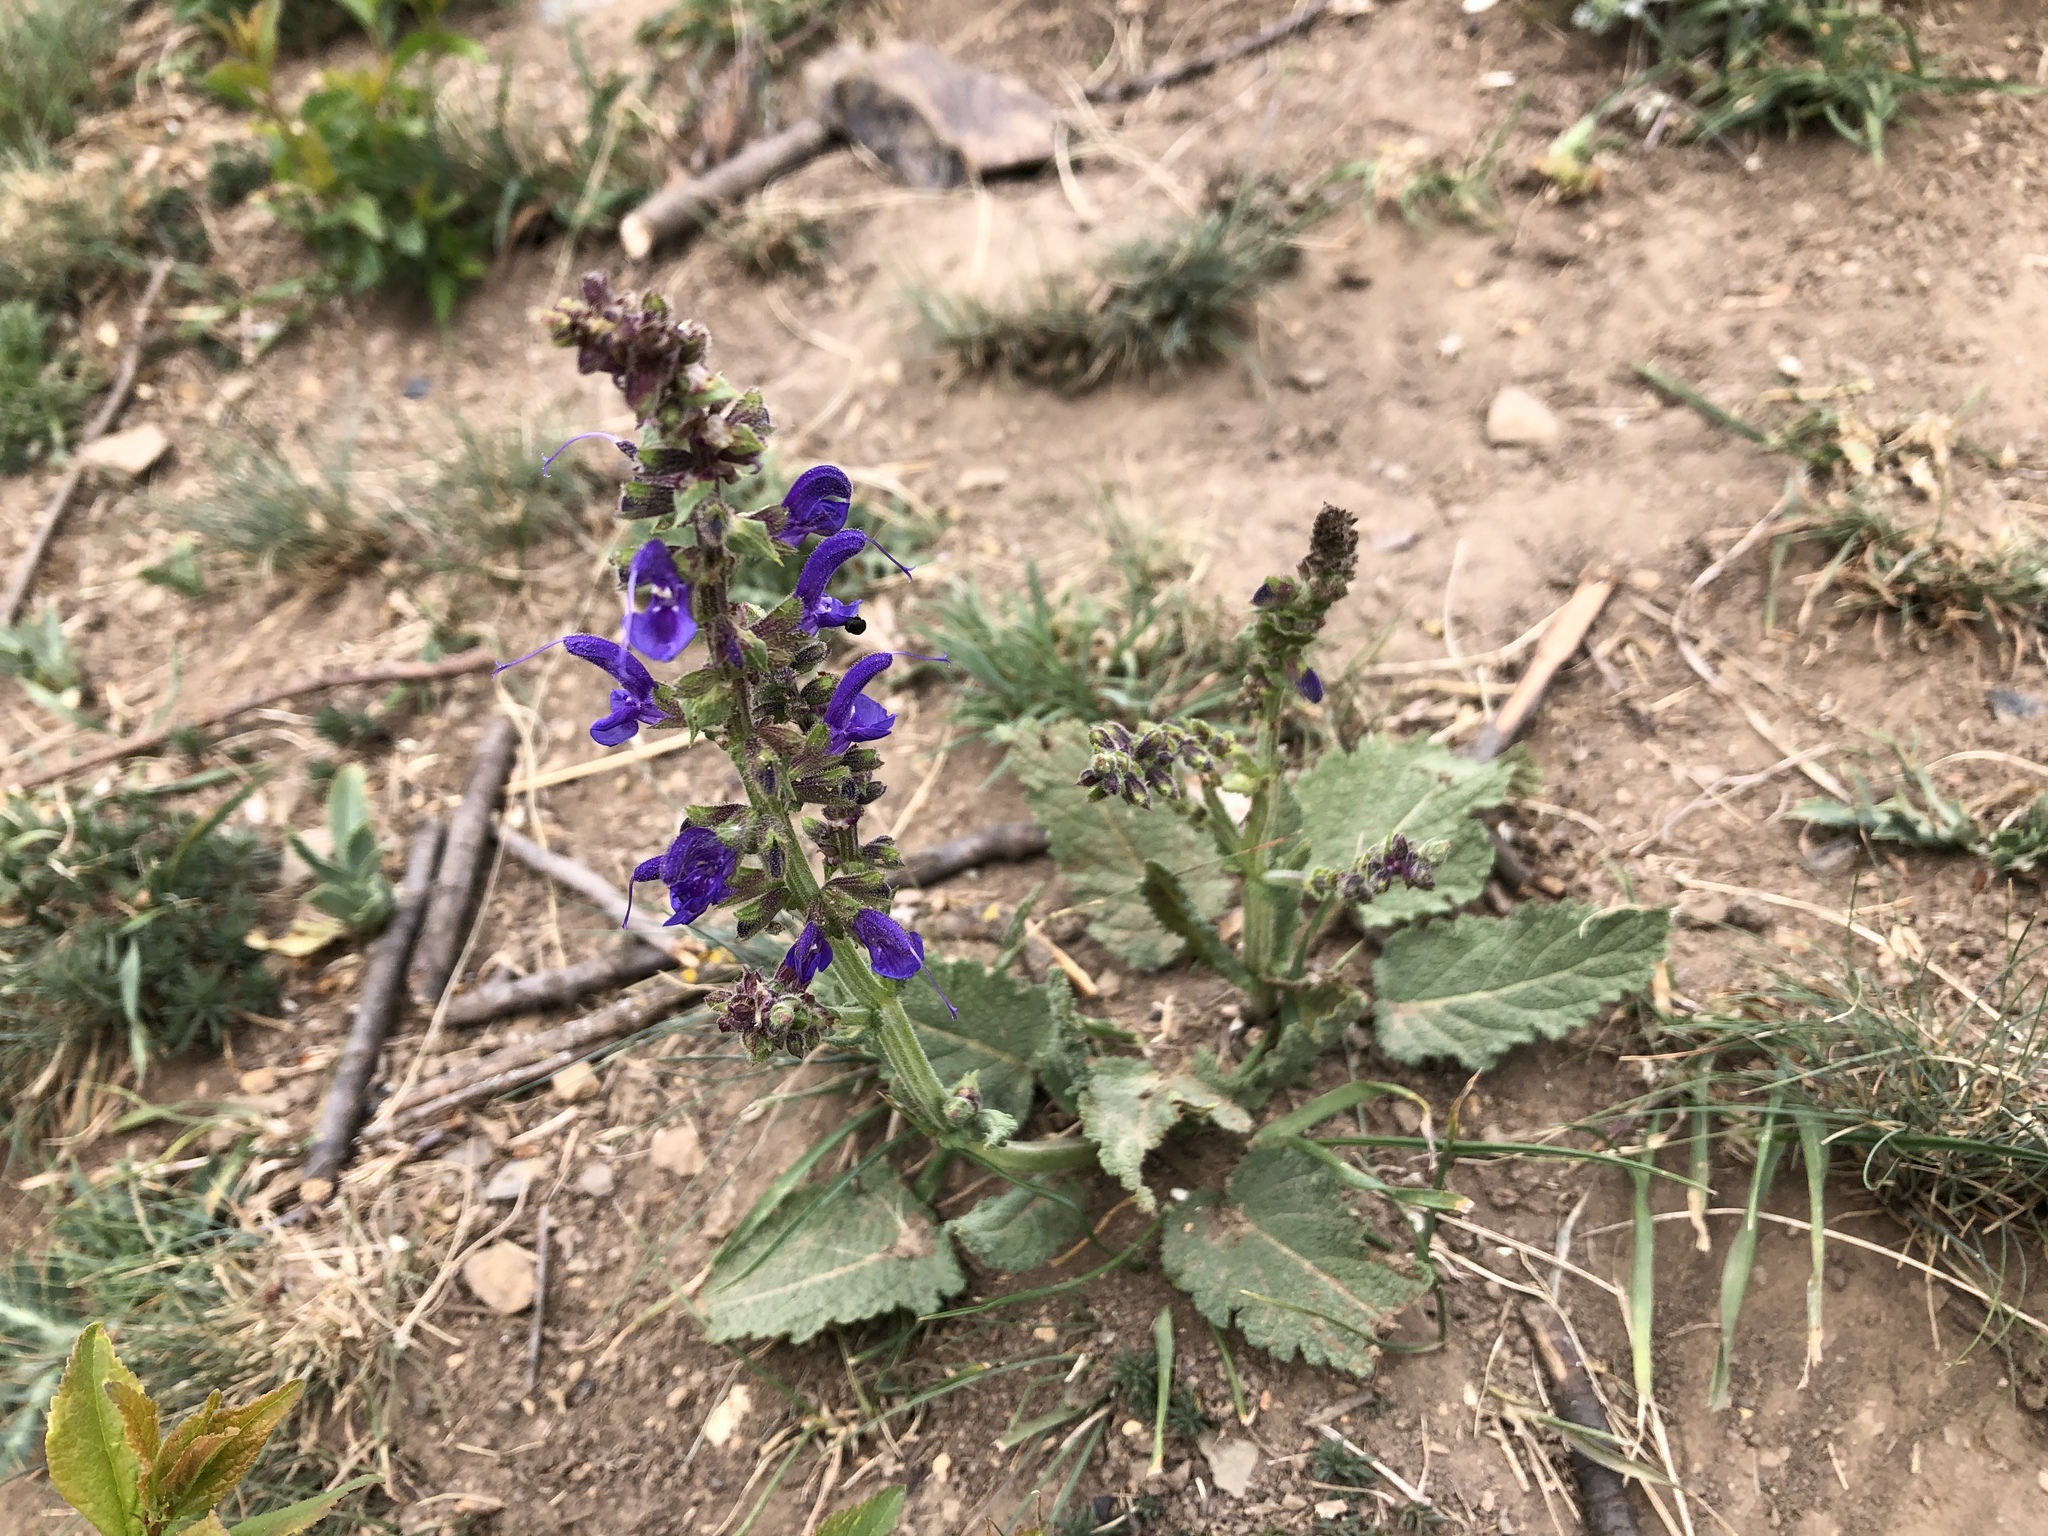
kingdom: Plantae
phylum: Tracheophyta
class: Magnoliopsida
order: Lamiales
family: Lamiaceae
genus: Salvia
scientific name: Salvia pratensis
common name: Meadow sage
